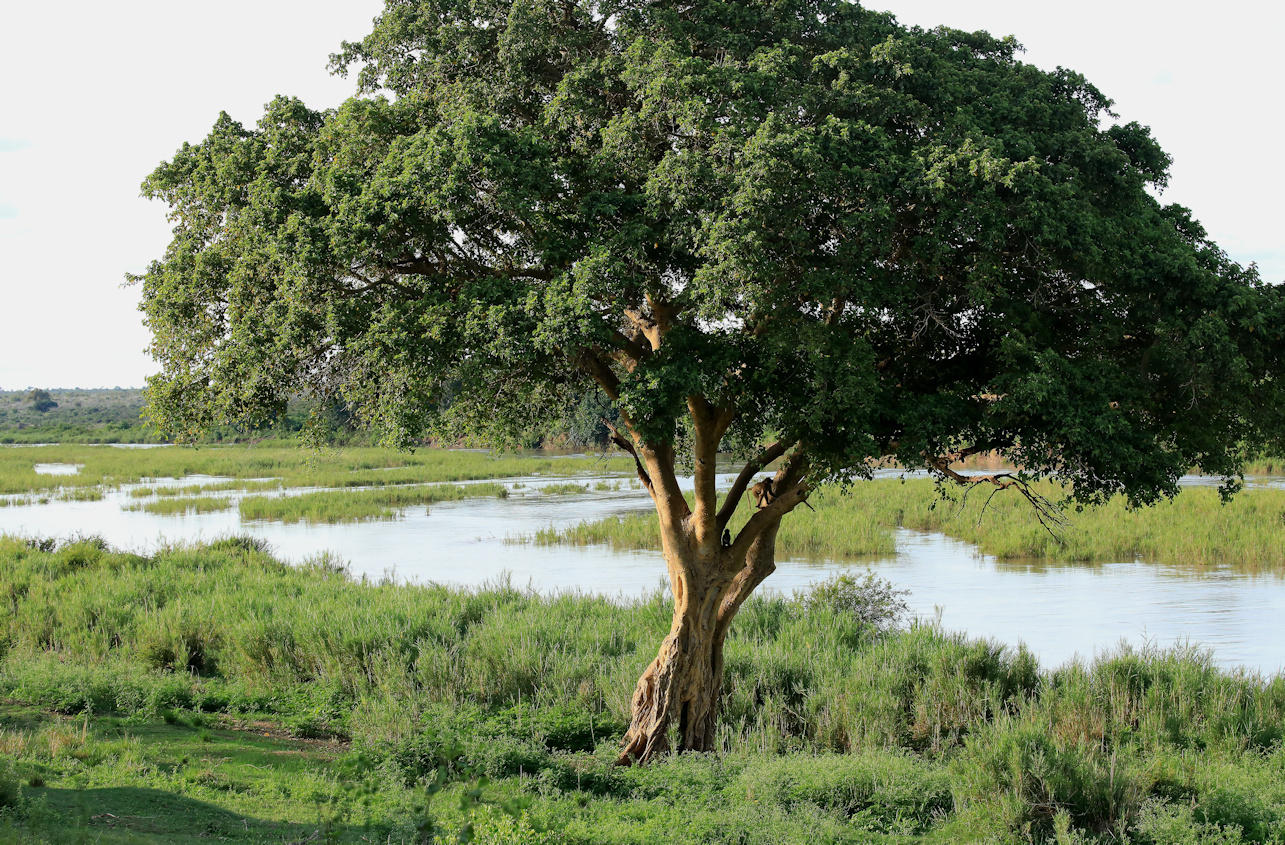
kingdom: Plantae
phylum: Tracheophyta
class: Magnoliopsida
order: Rosales
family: Moraceae
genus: Ficus
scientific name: Ficus sycomorus
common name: Sycomore
